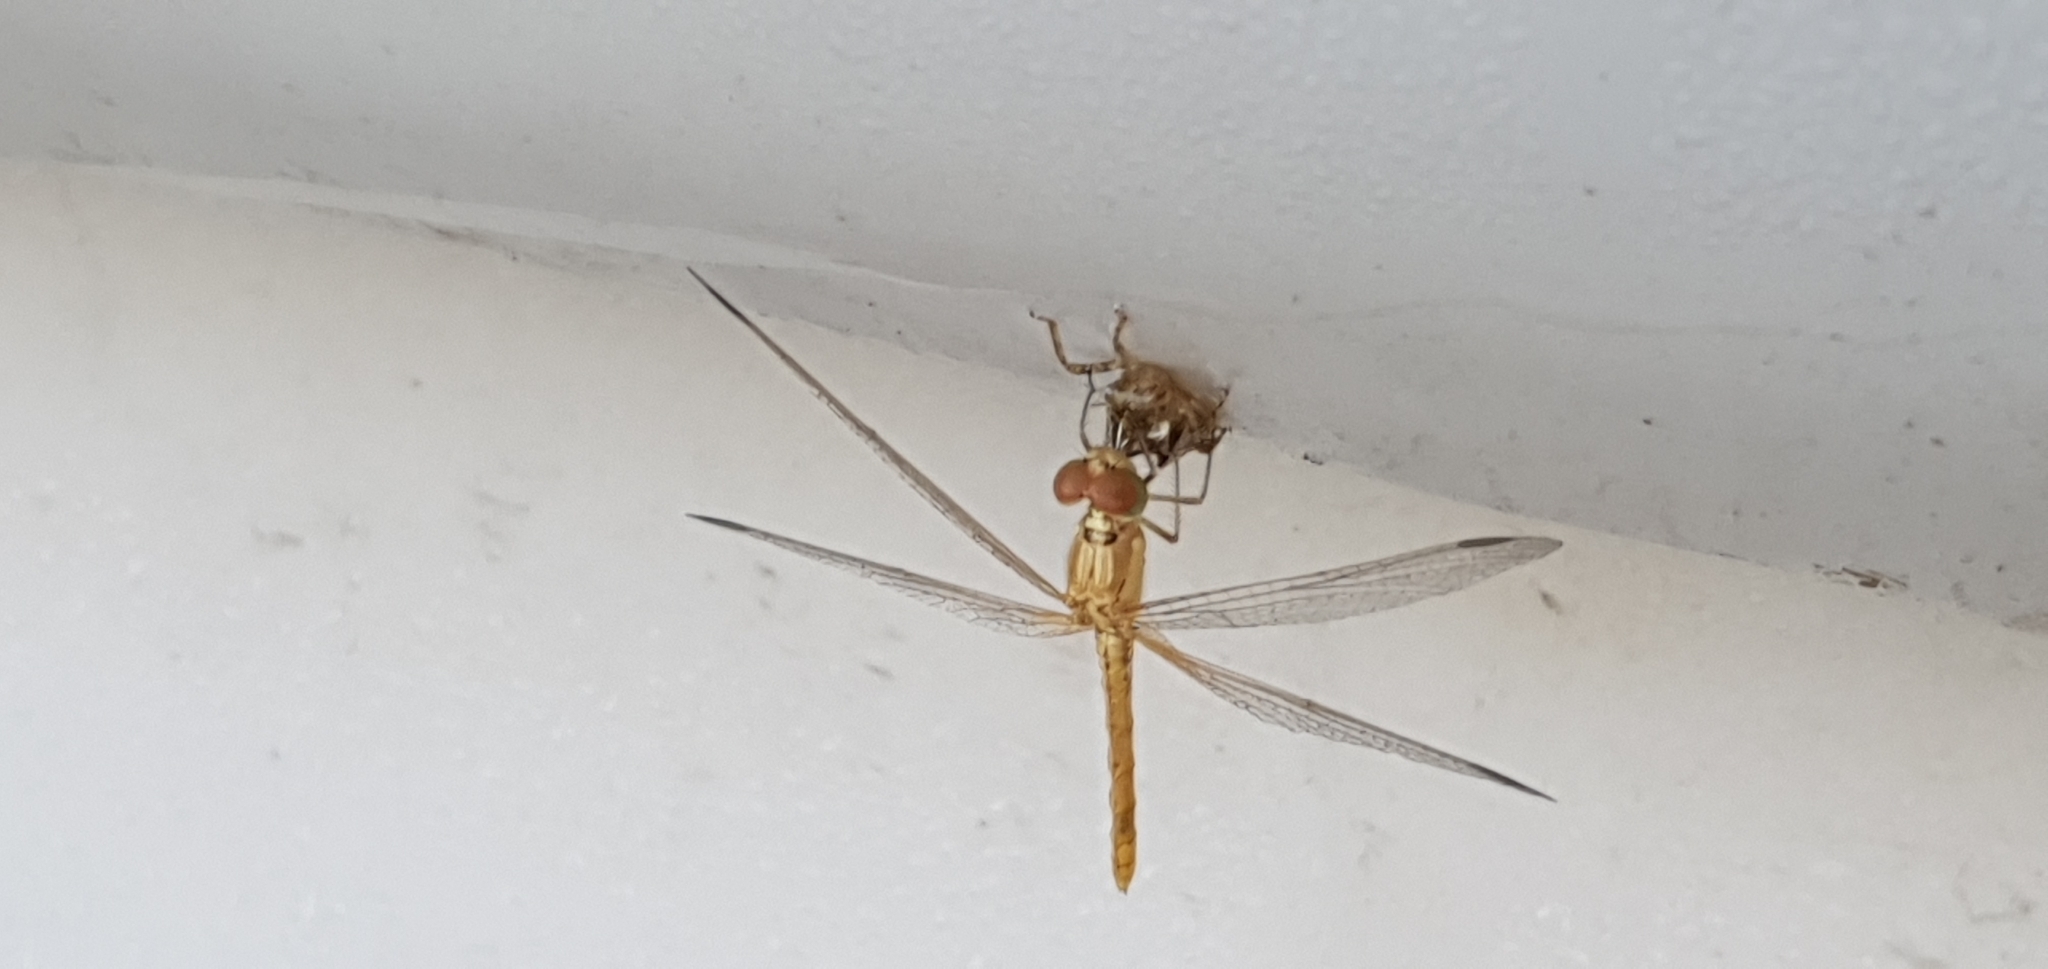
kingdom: Animalia
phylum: Arthropoda
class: Insecta
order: Odonata
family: Libellulidae
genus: Diplacodes
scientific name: Diplacodes haematodes
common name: Scarlet percher
